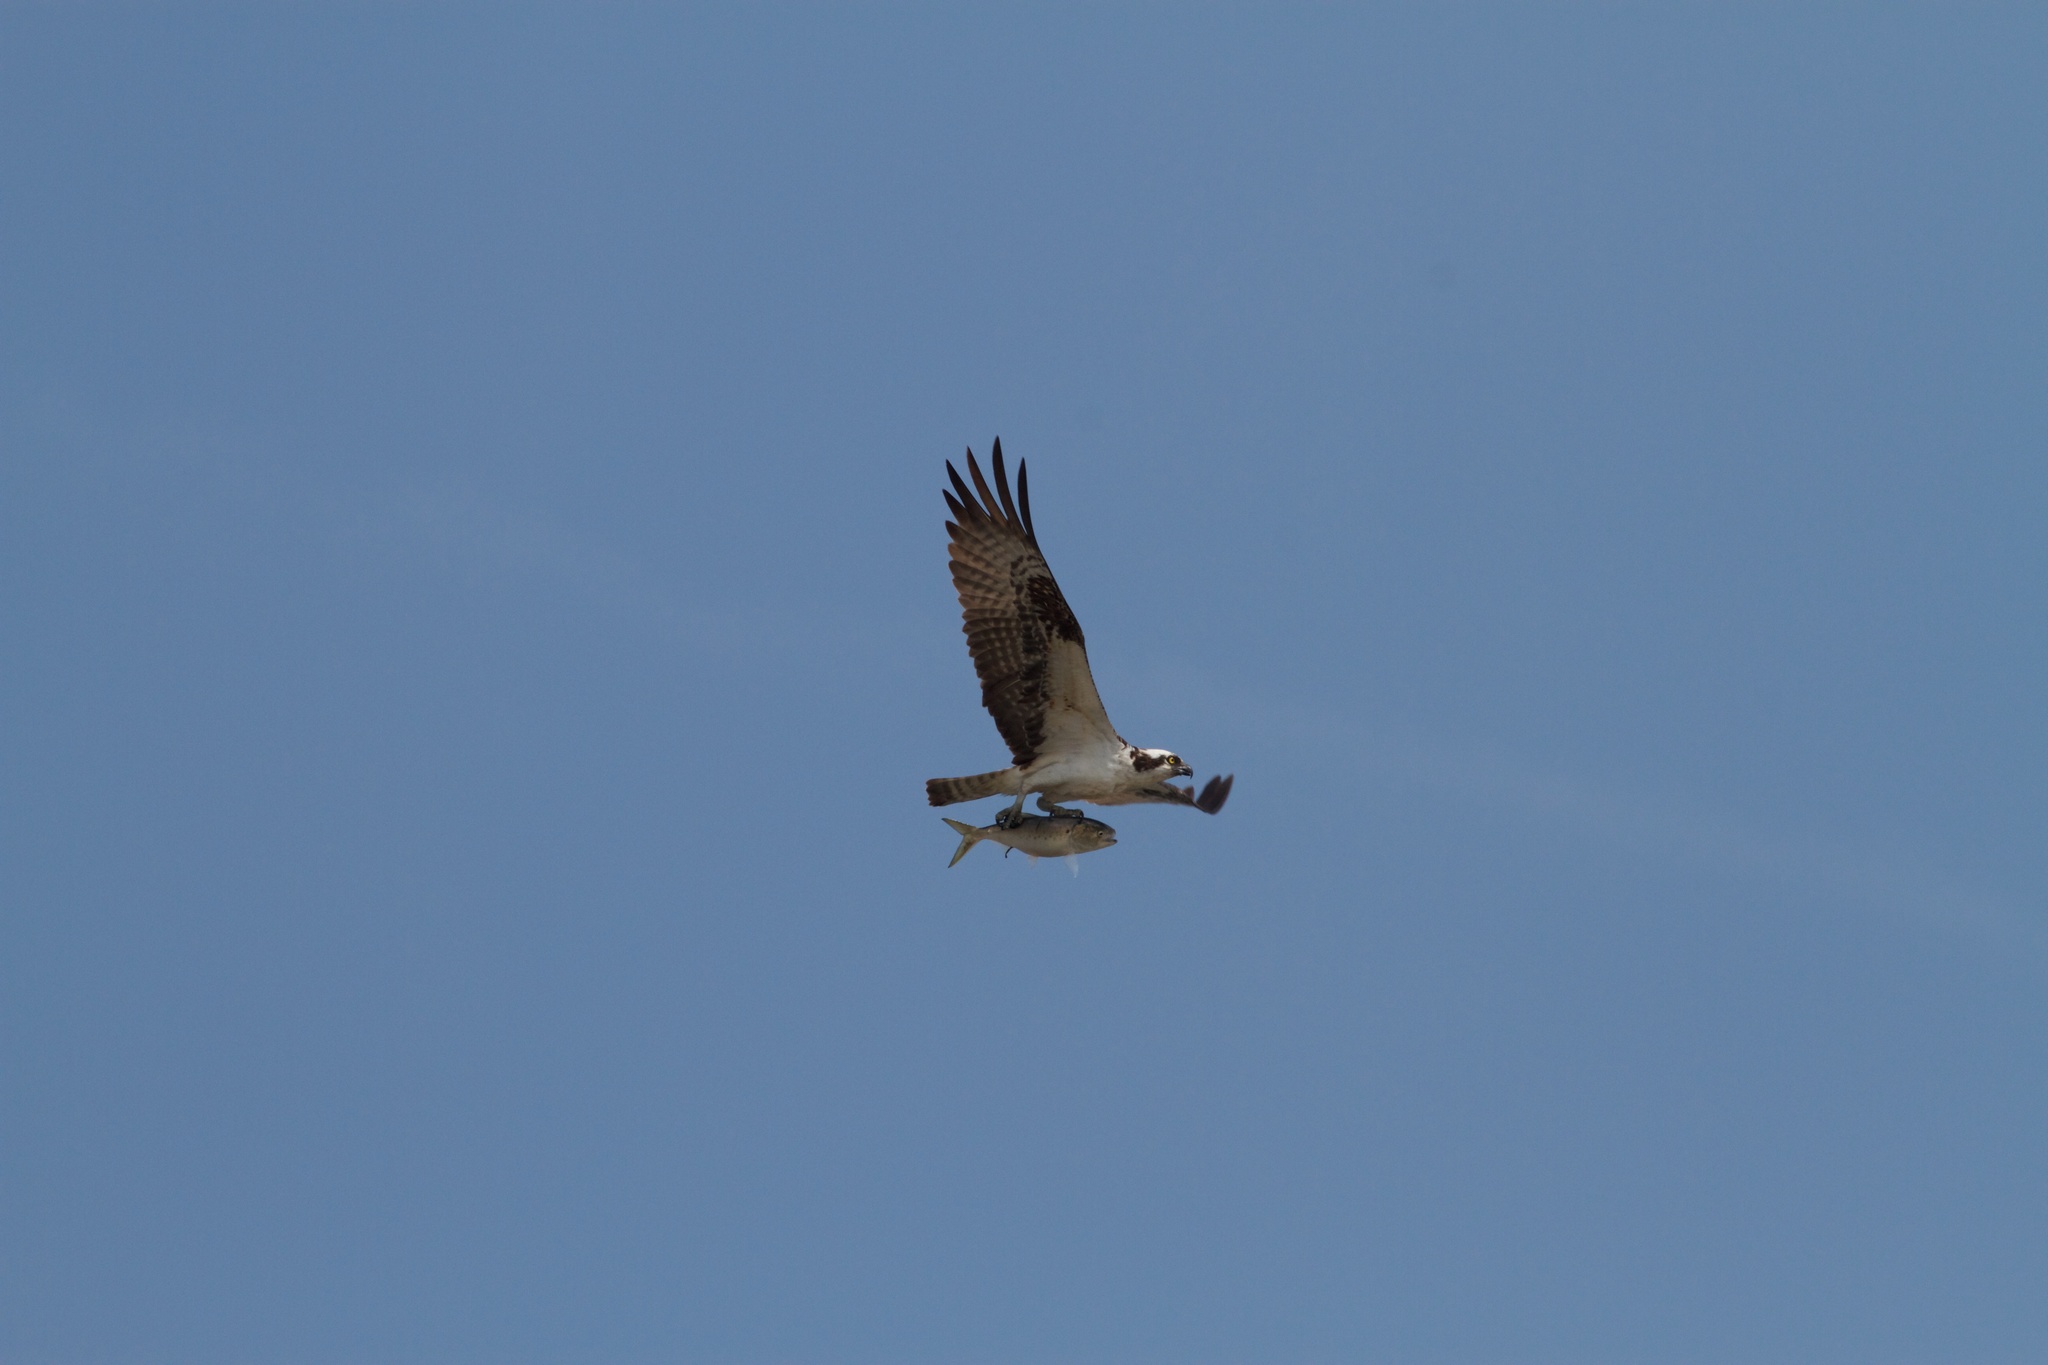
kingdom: Animalia
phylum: Chordata
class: Aves
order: Accipitriformes
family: Pandionidae
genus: Pandion
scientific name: Pandion haliaetus
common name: Osprey
